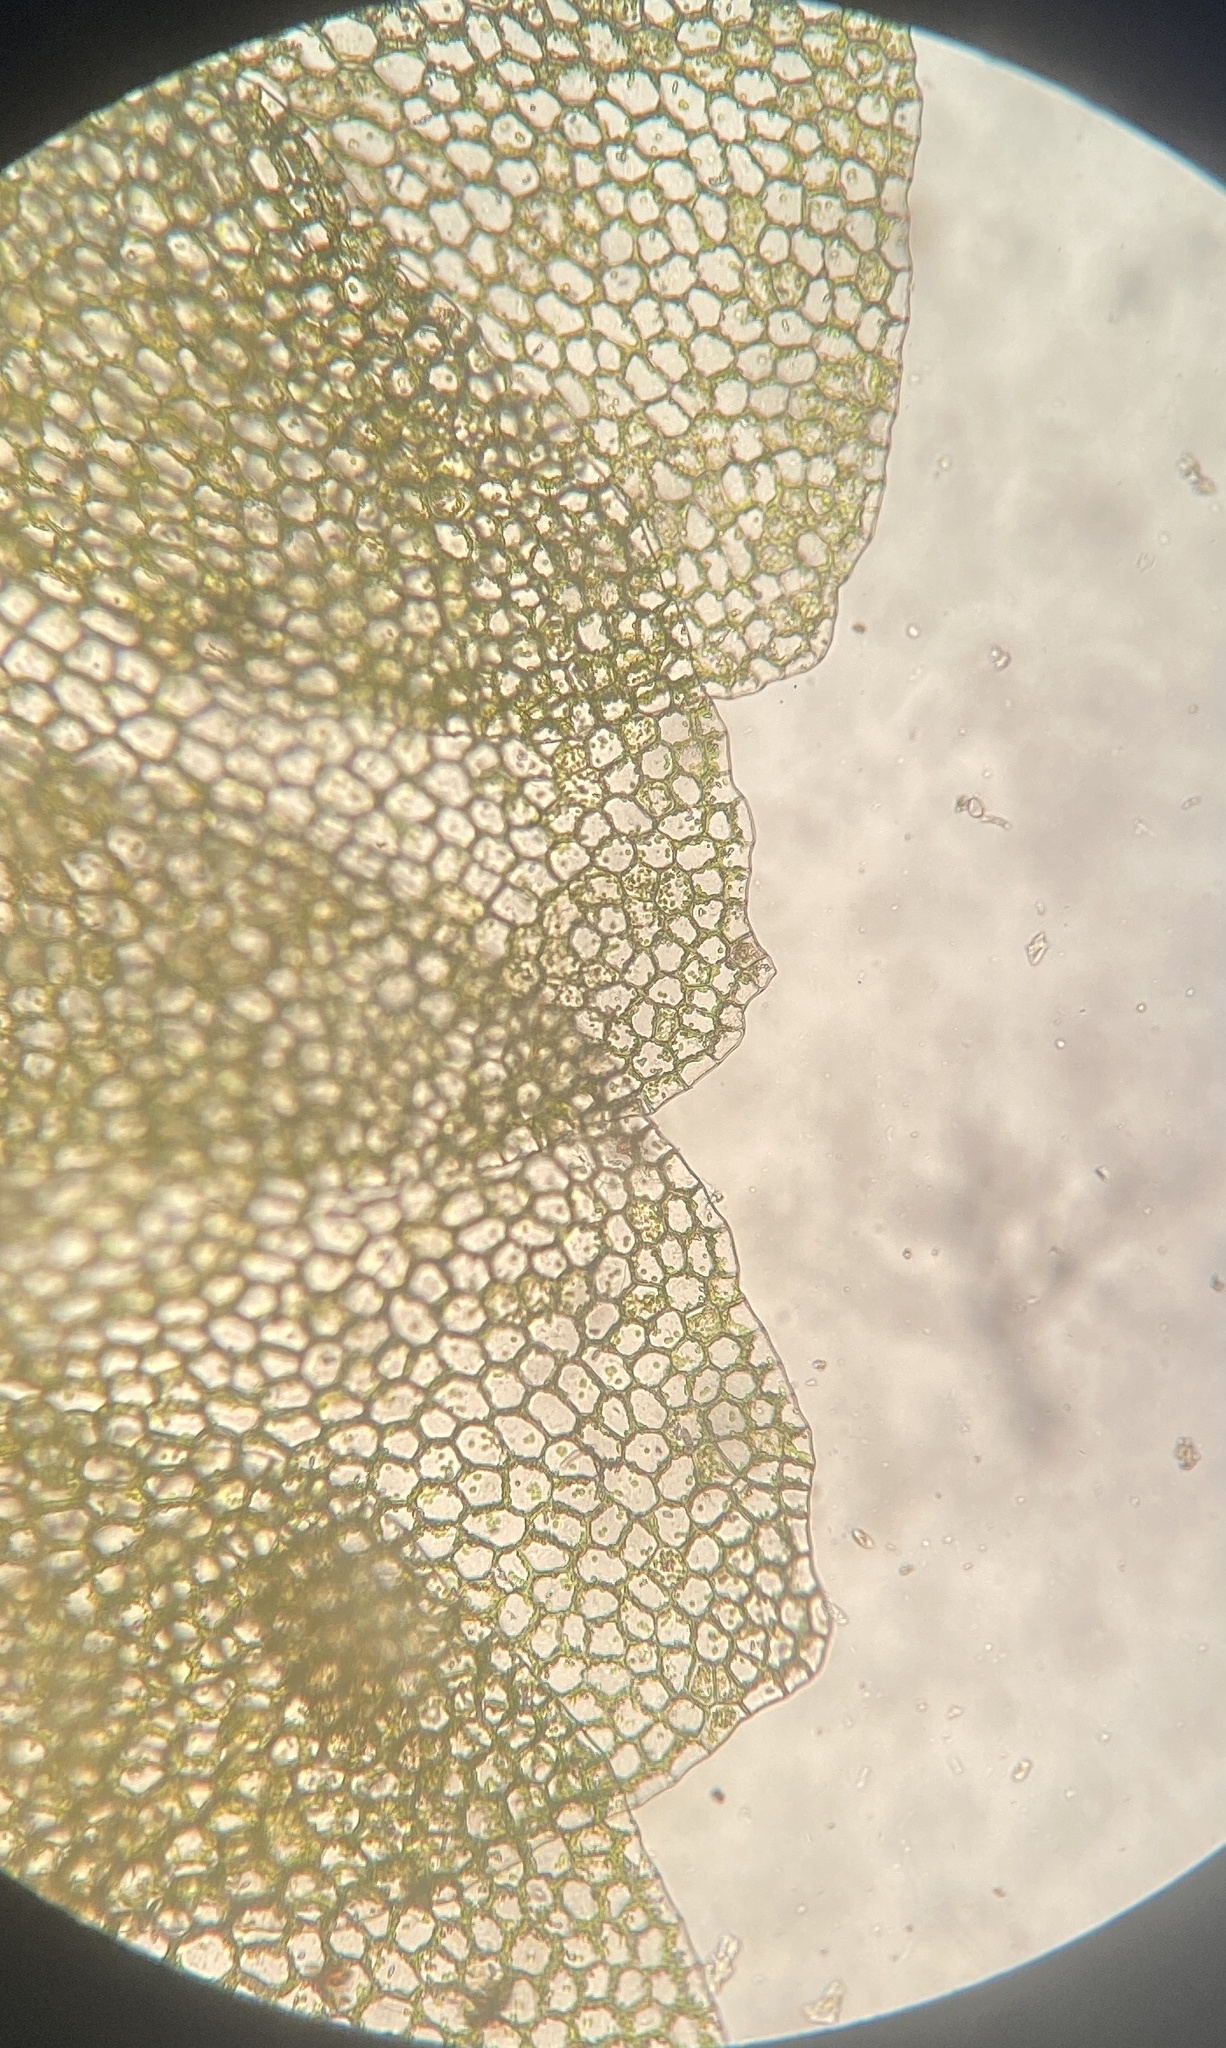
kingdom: Plantae
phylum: Marchantiophyta
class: Jungermanniopsida
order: Jungermanniales
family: Calypogeiaceae
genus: Calypogeia
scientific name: Calypogeia neogaea
